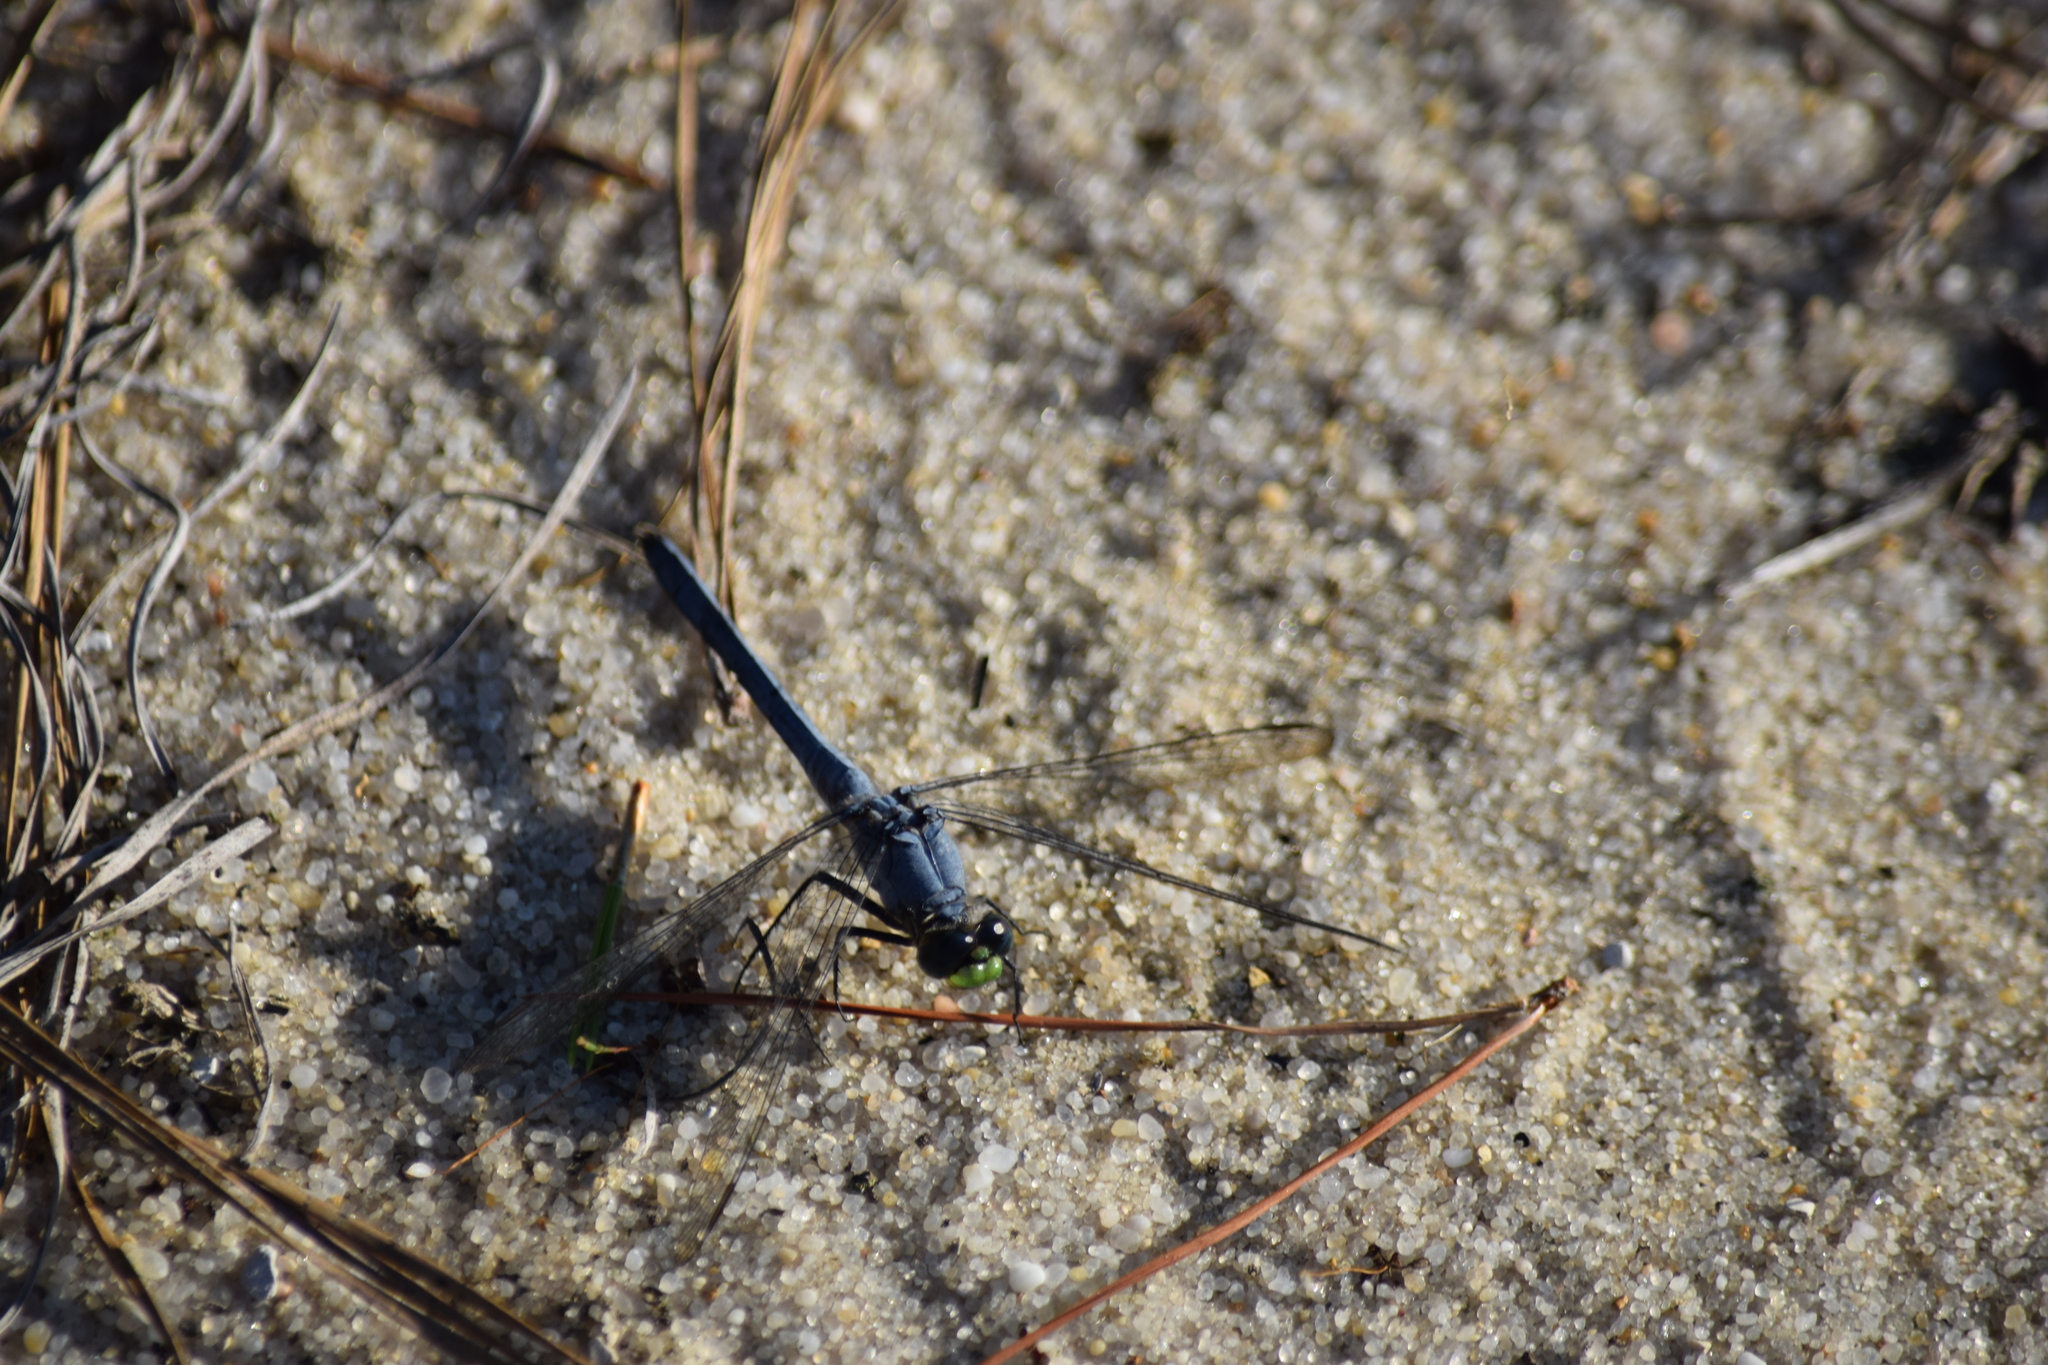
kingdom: Animalia
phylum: Arthropoda
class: Insecta
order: Odonata
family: Libellulidae
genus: Erythemis
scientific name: Erythemis simplicicollis
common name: Eastern pondhawk
